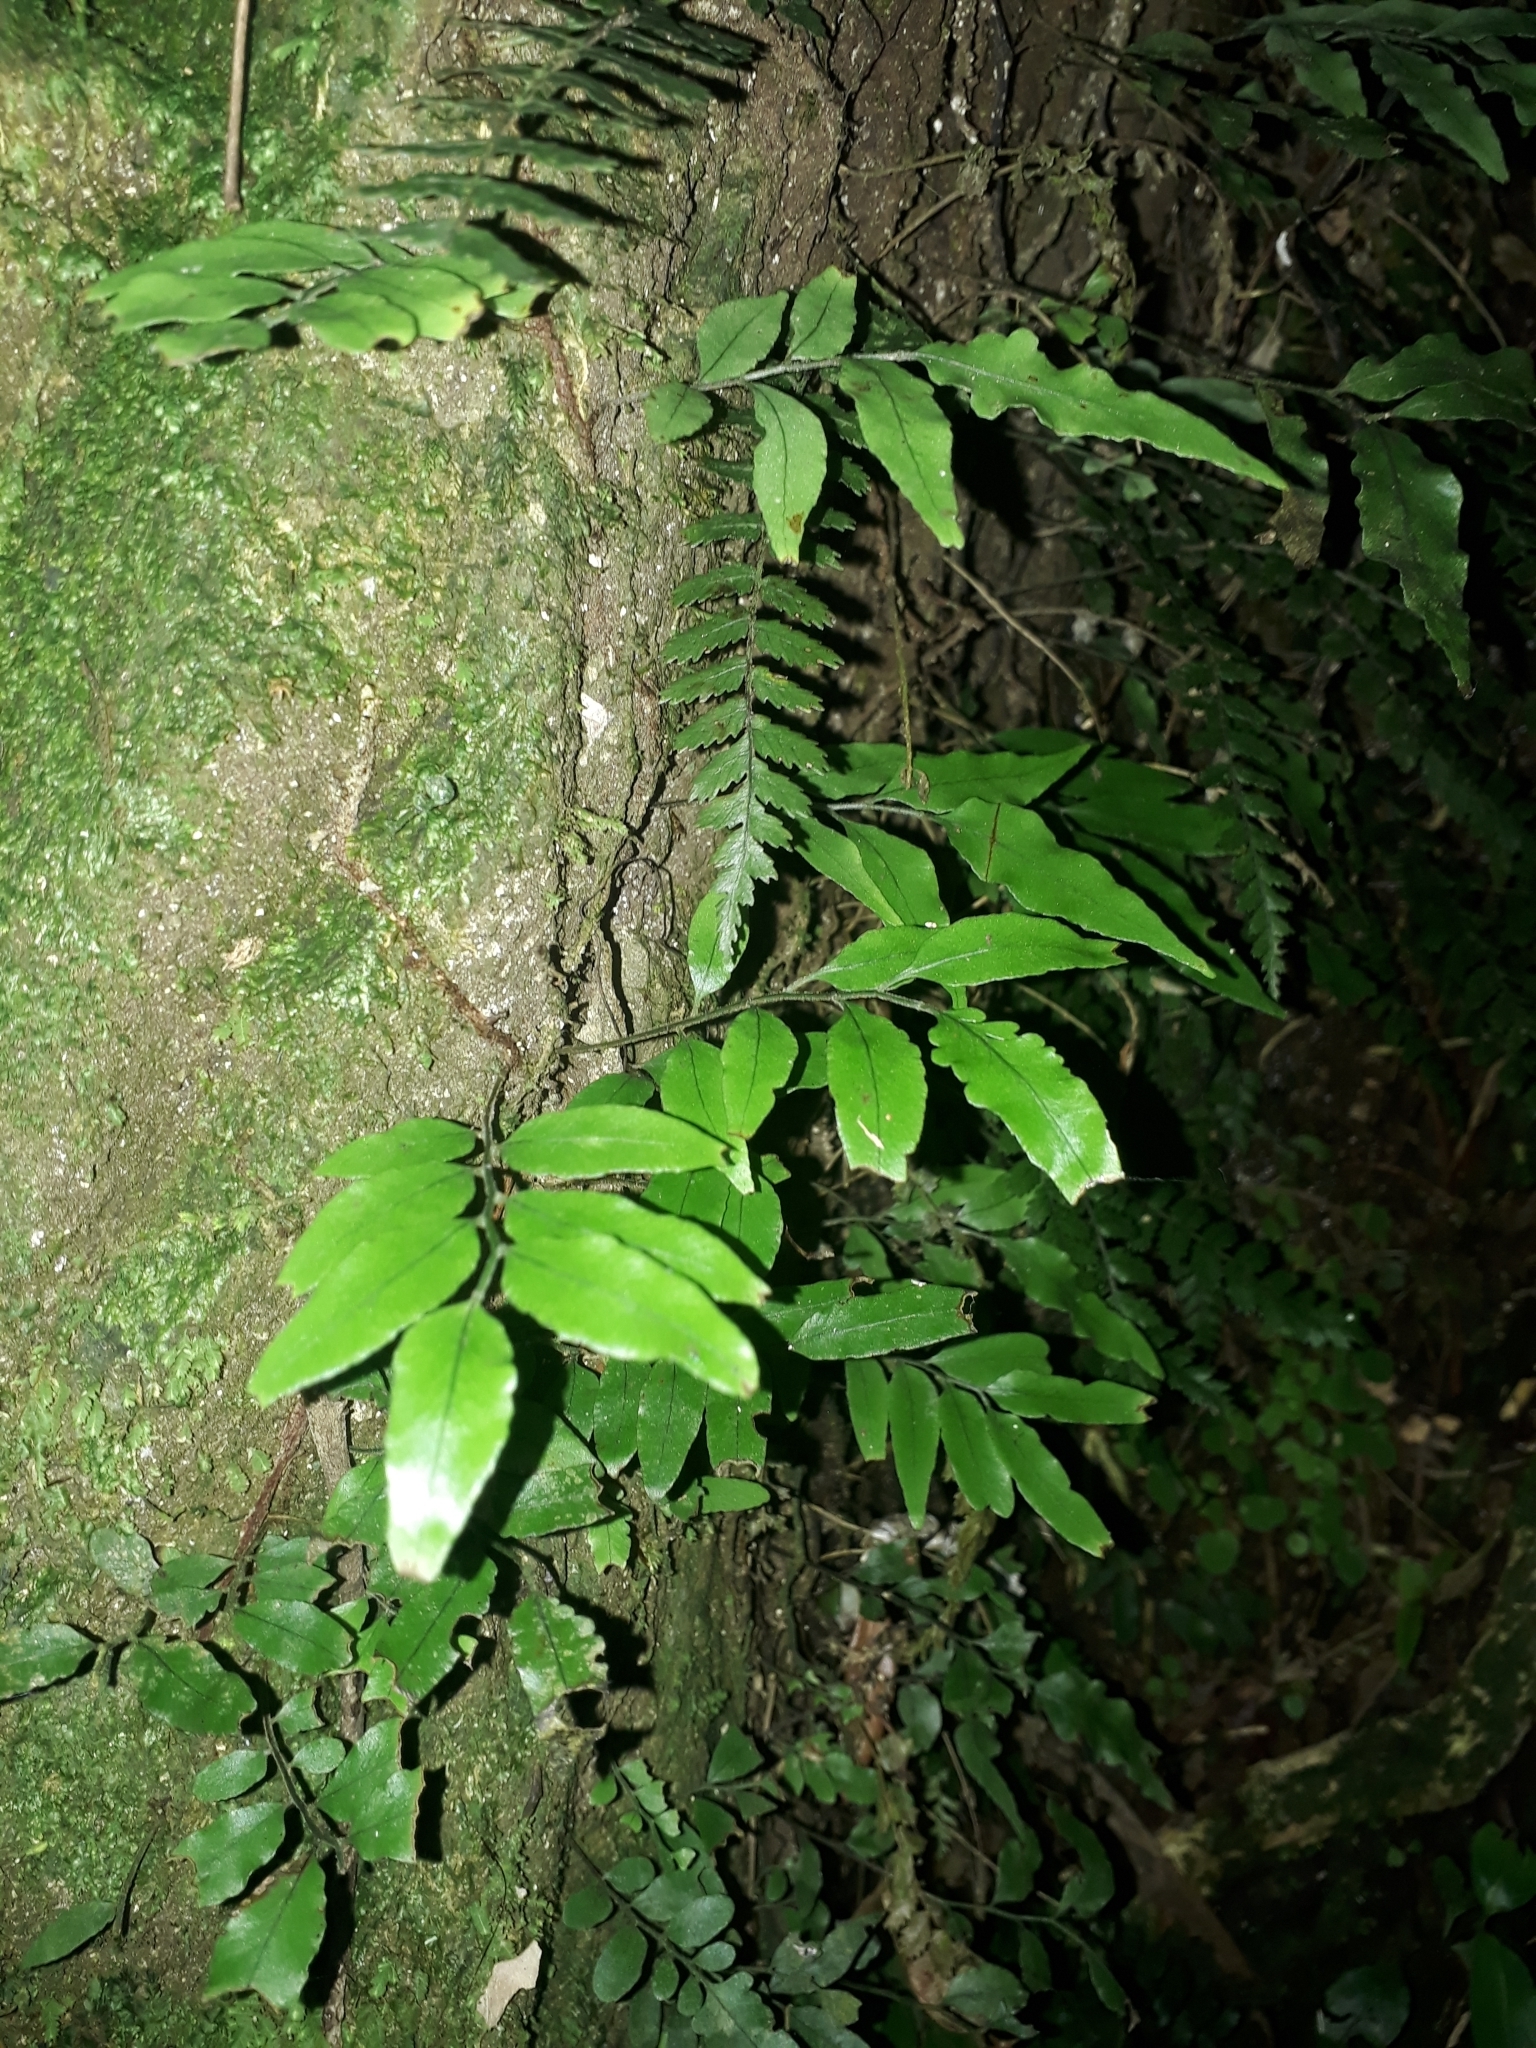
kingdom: Plantae
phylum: Tracheophyta
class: Polypodiopsida
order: Polypodiales
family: Tectariaceae
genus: Arthropteris
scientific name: Arthropteris tenella
